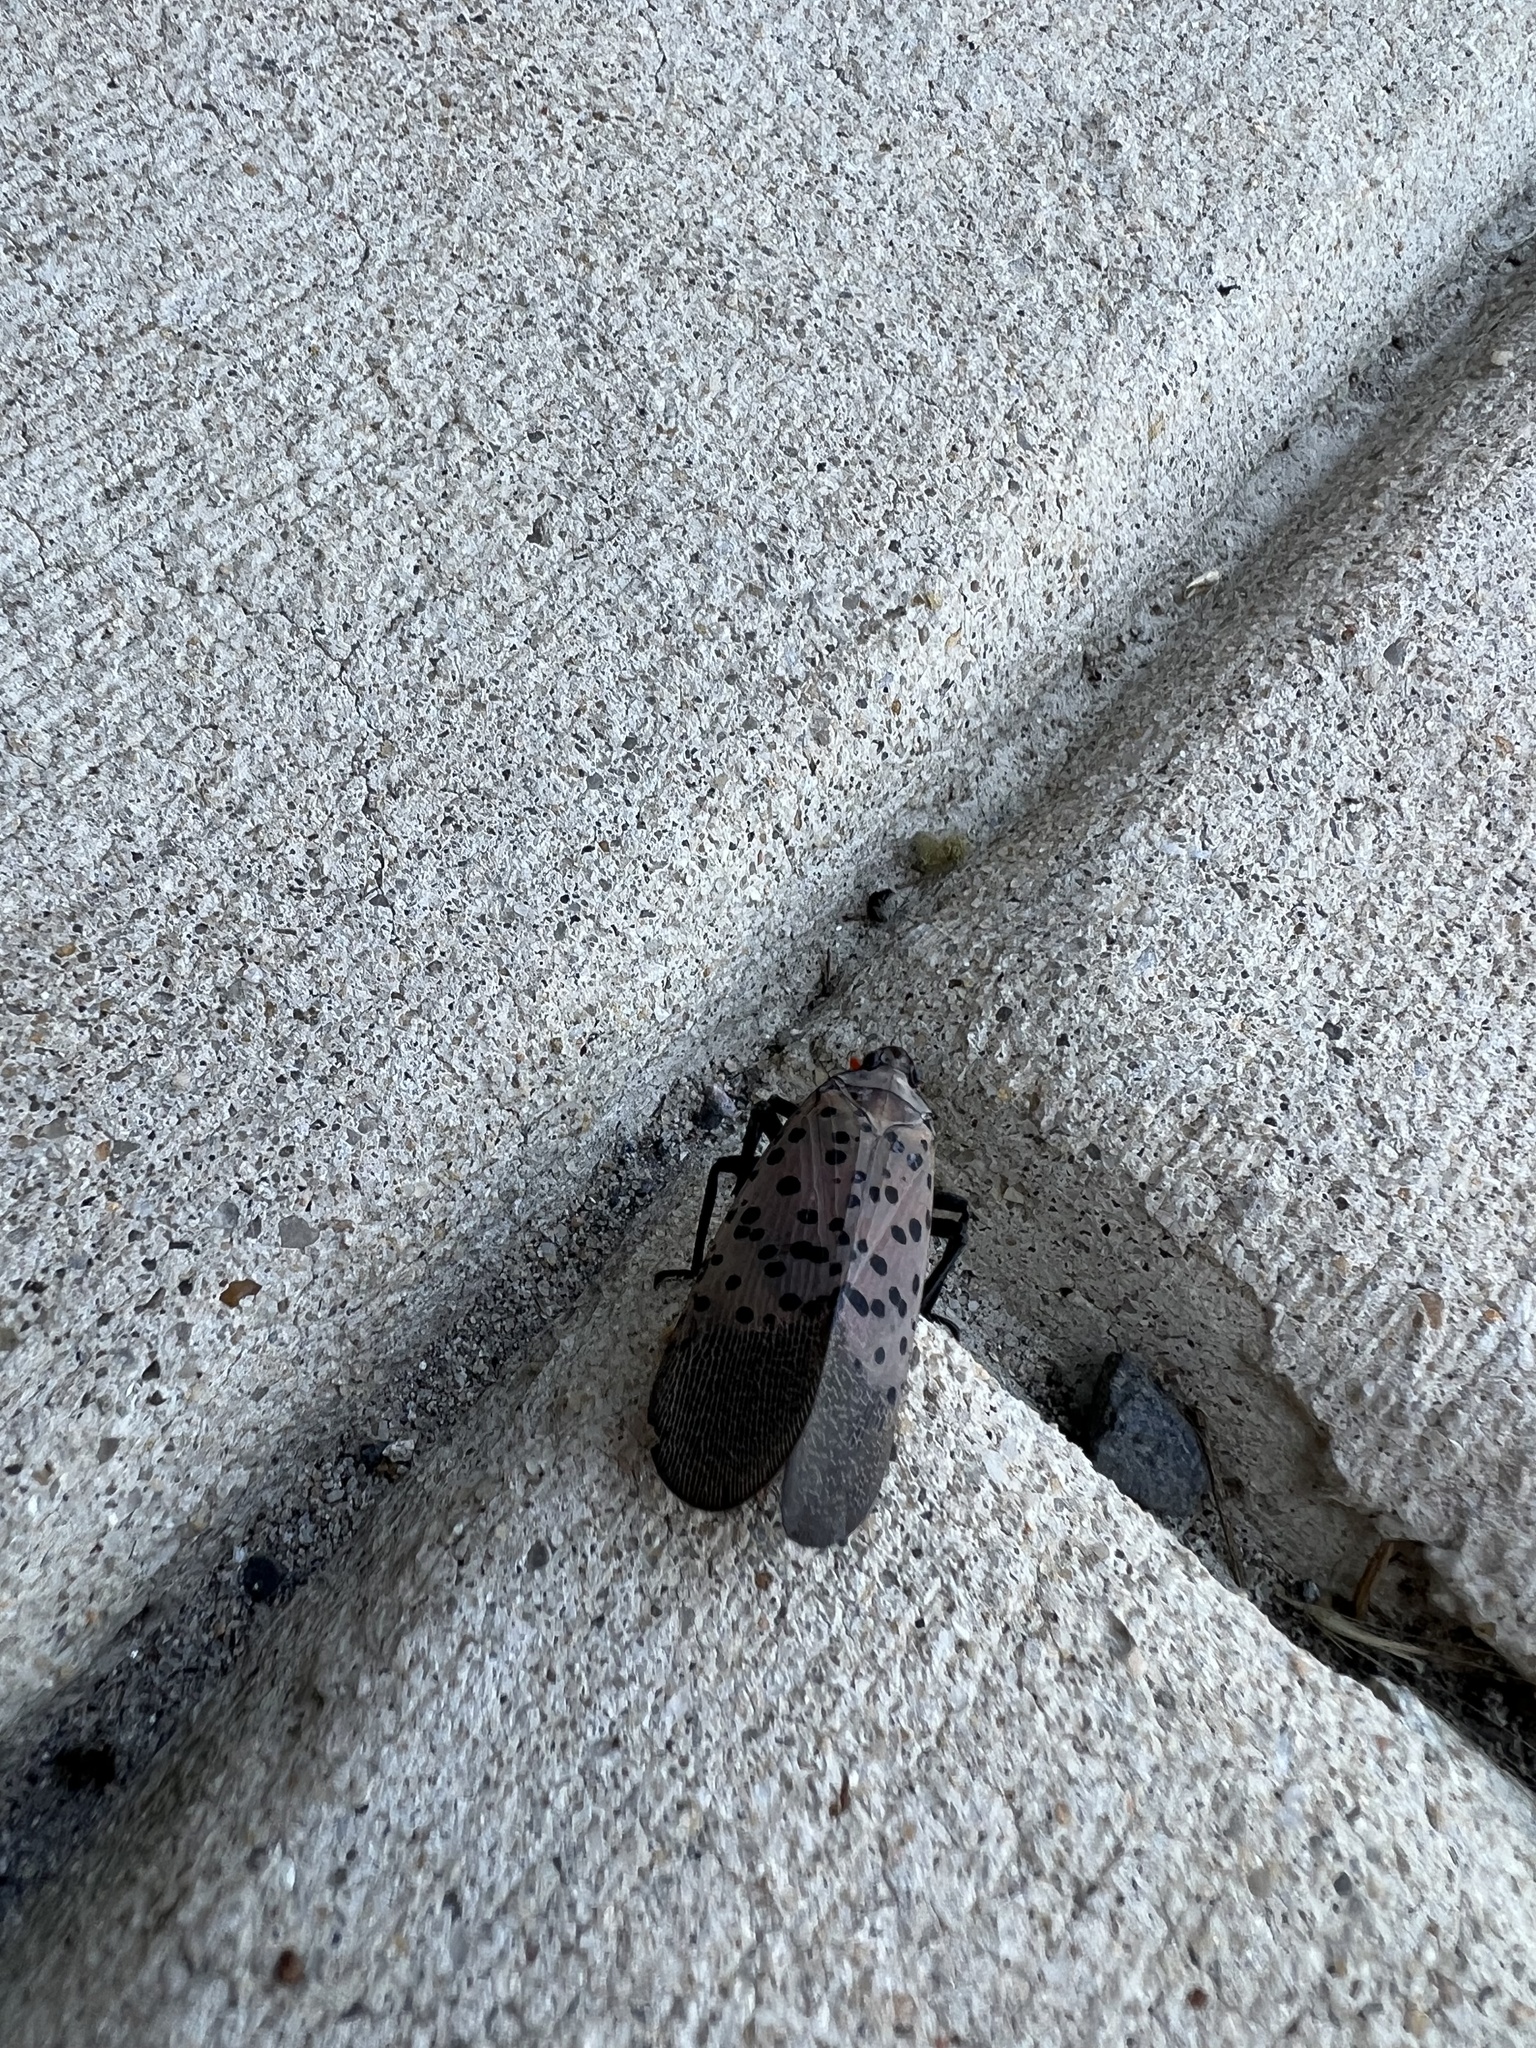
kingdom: Animalia
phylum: Arthropoda
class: Insecta
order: Hemiptera
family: Fulgoridae
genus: Lycorma
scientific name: Lycorma delicatula
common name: Spotted lanternfly
